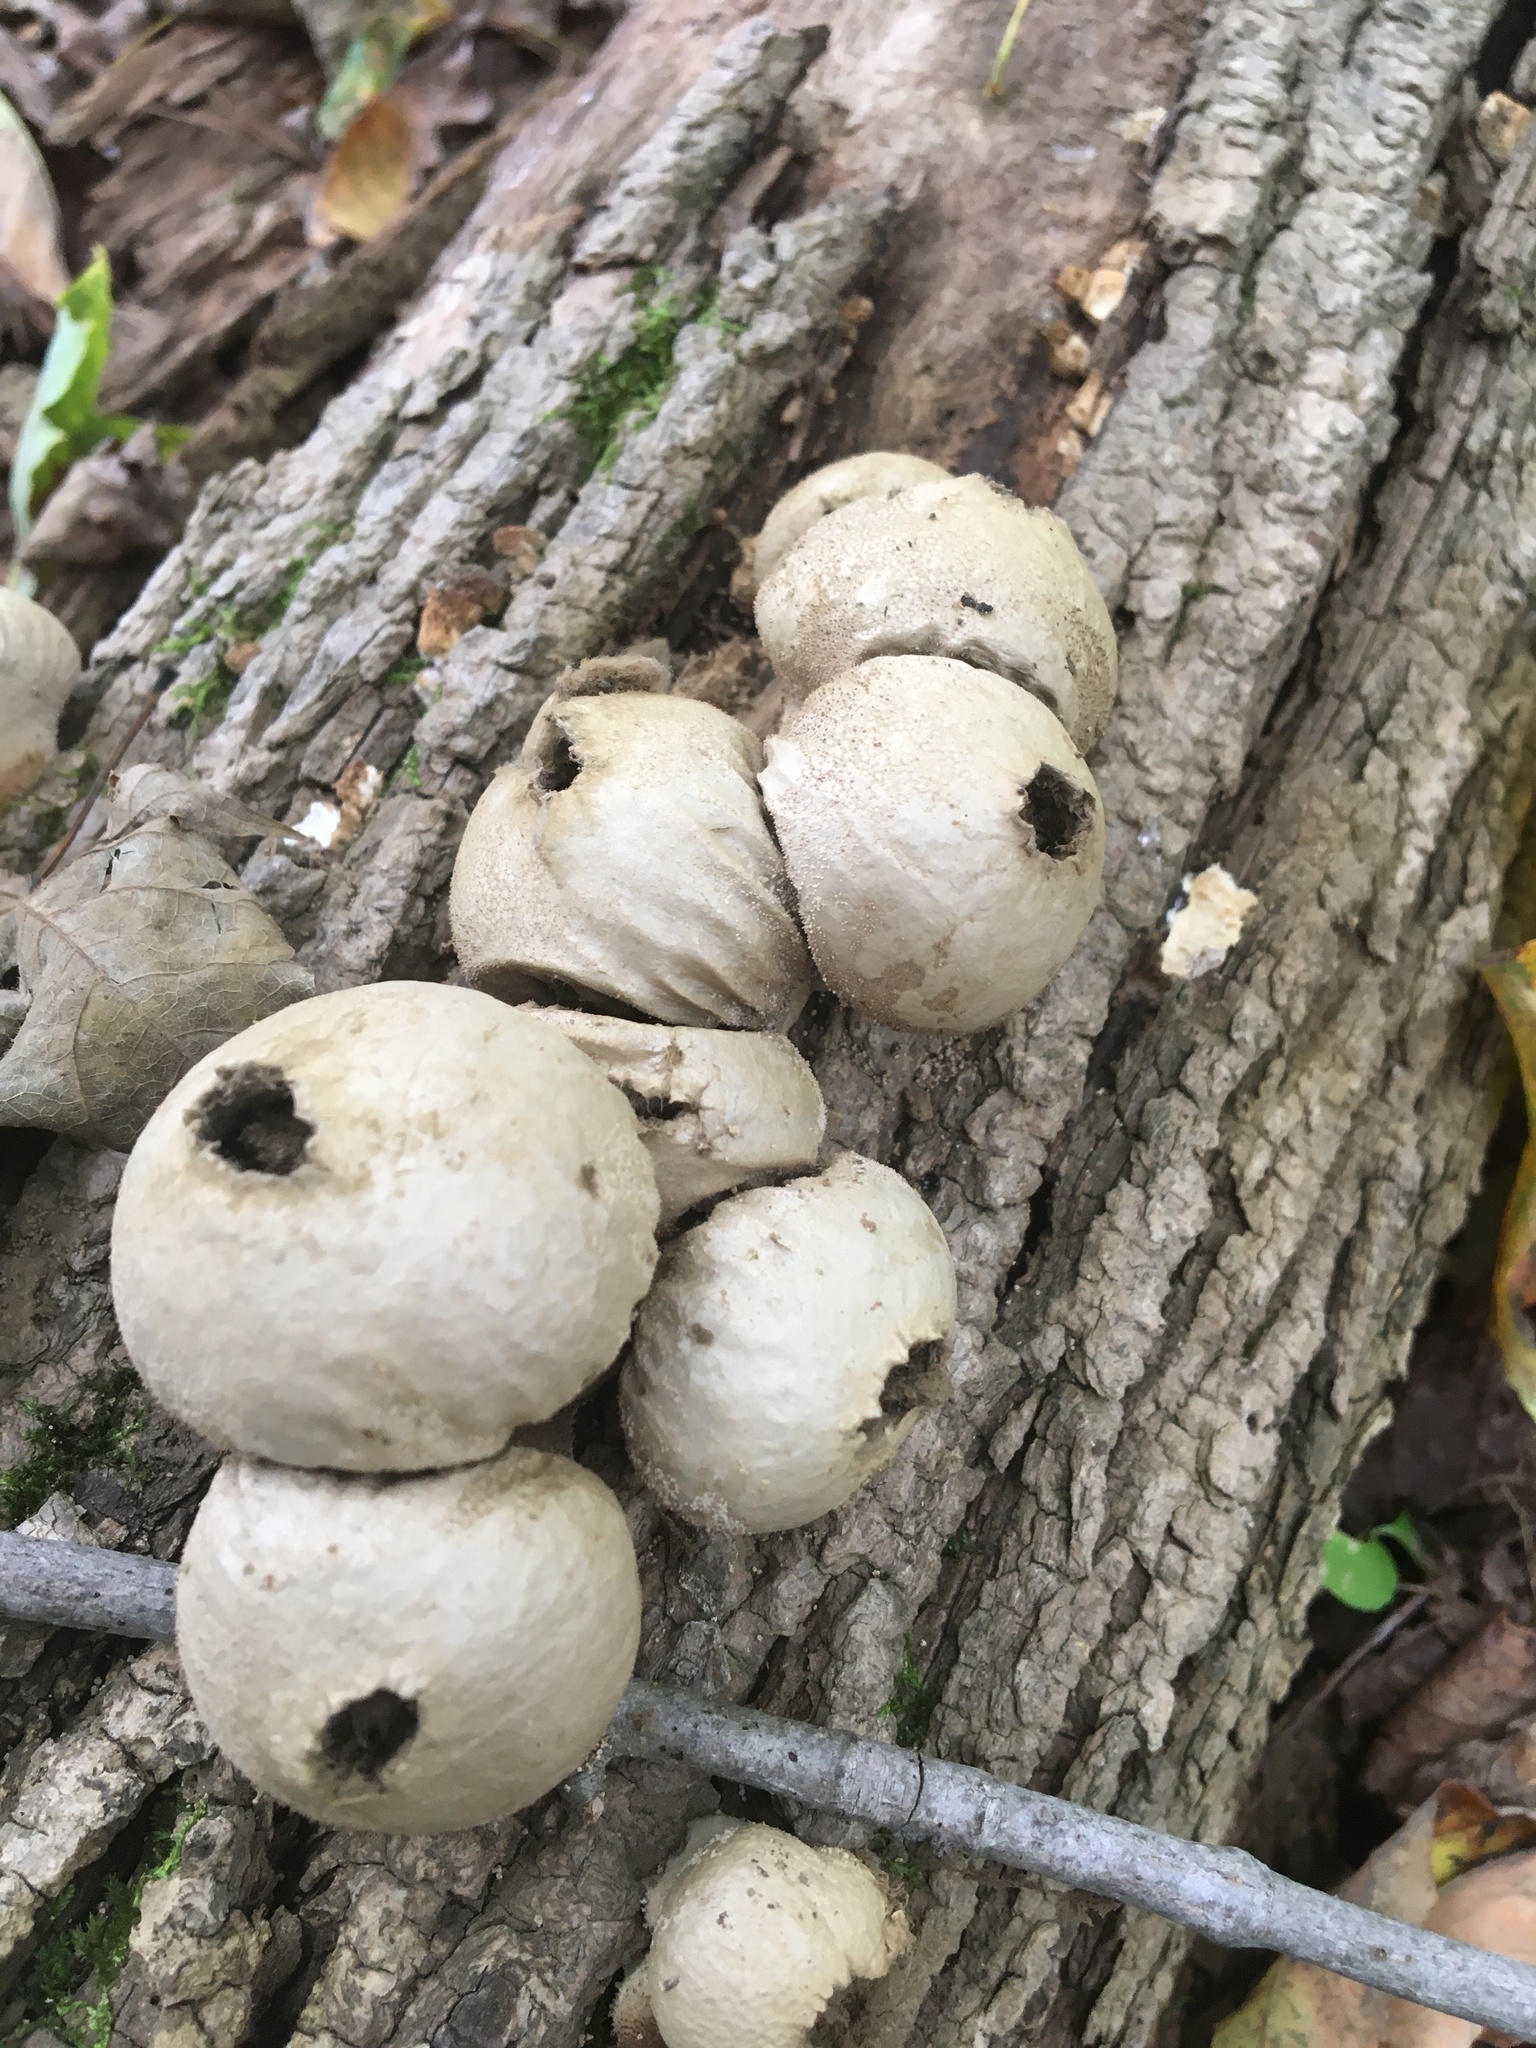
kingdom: Fungi
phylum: Basidiomycota
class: Agaricomycetes
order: Agaricales
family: Lycoperdaceae
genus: Apioperdon
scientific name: Apioperdon pyriforme
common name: Pear-shaped puffball
